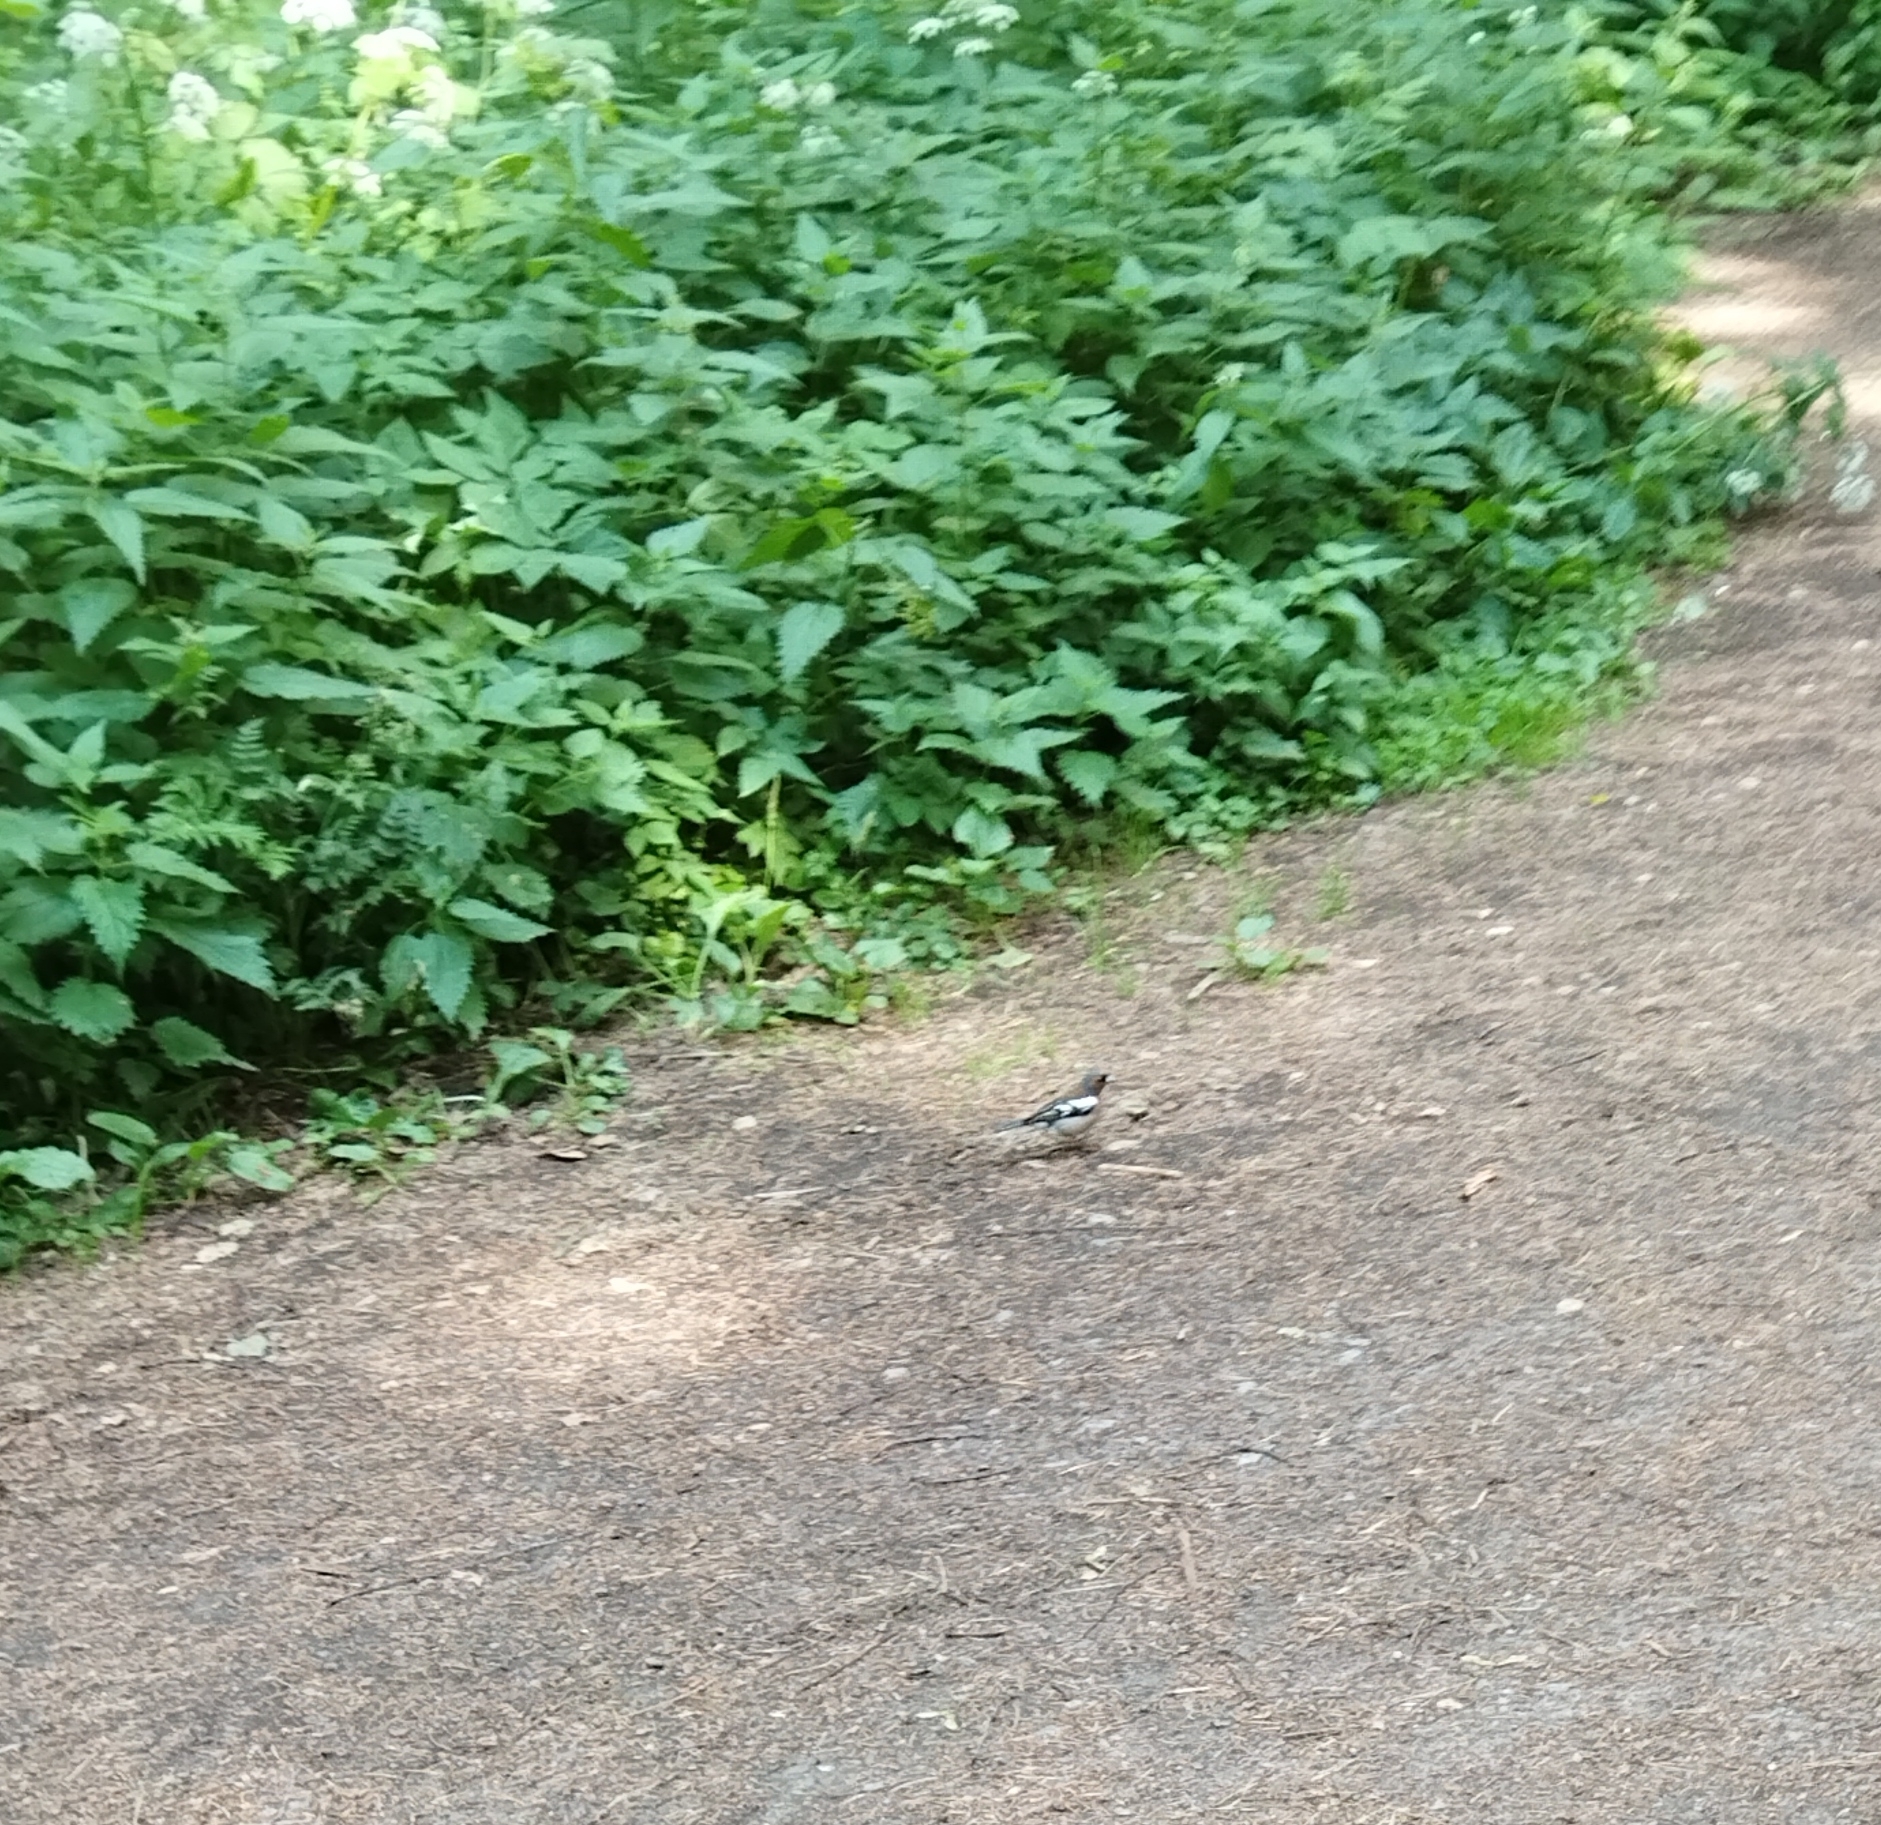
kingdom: Animalia
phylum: Chordata
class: Aves
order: Passeriformes
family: Fringillidae
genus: Fringilla
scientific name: Fringilla coelebs
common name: Common chaffinch
